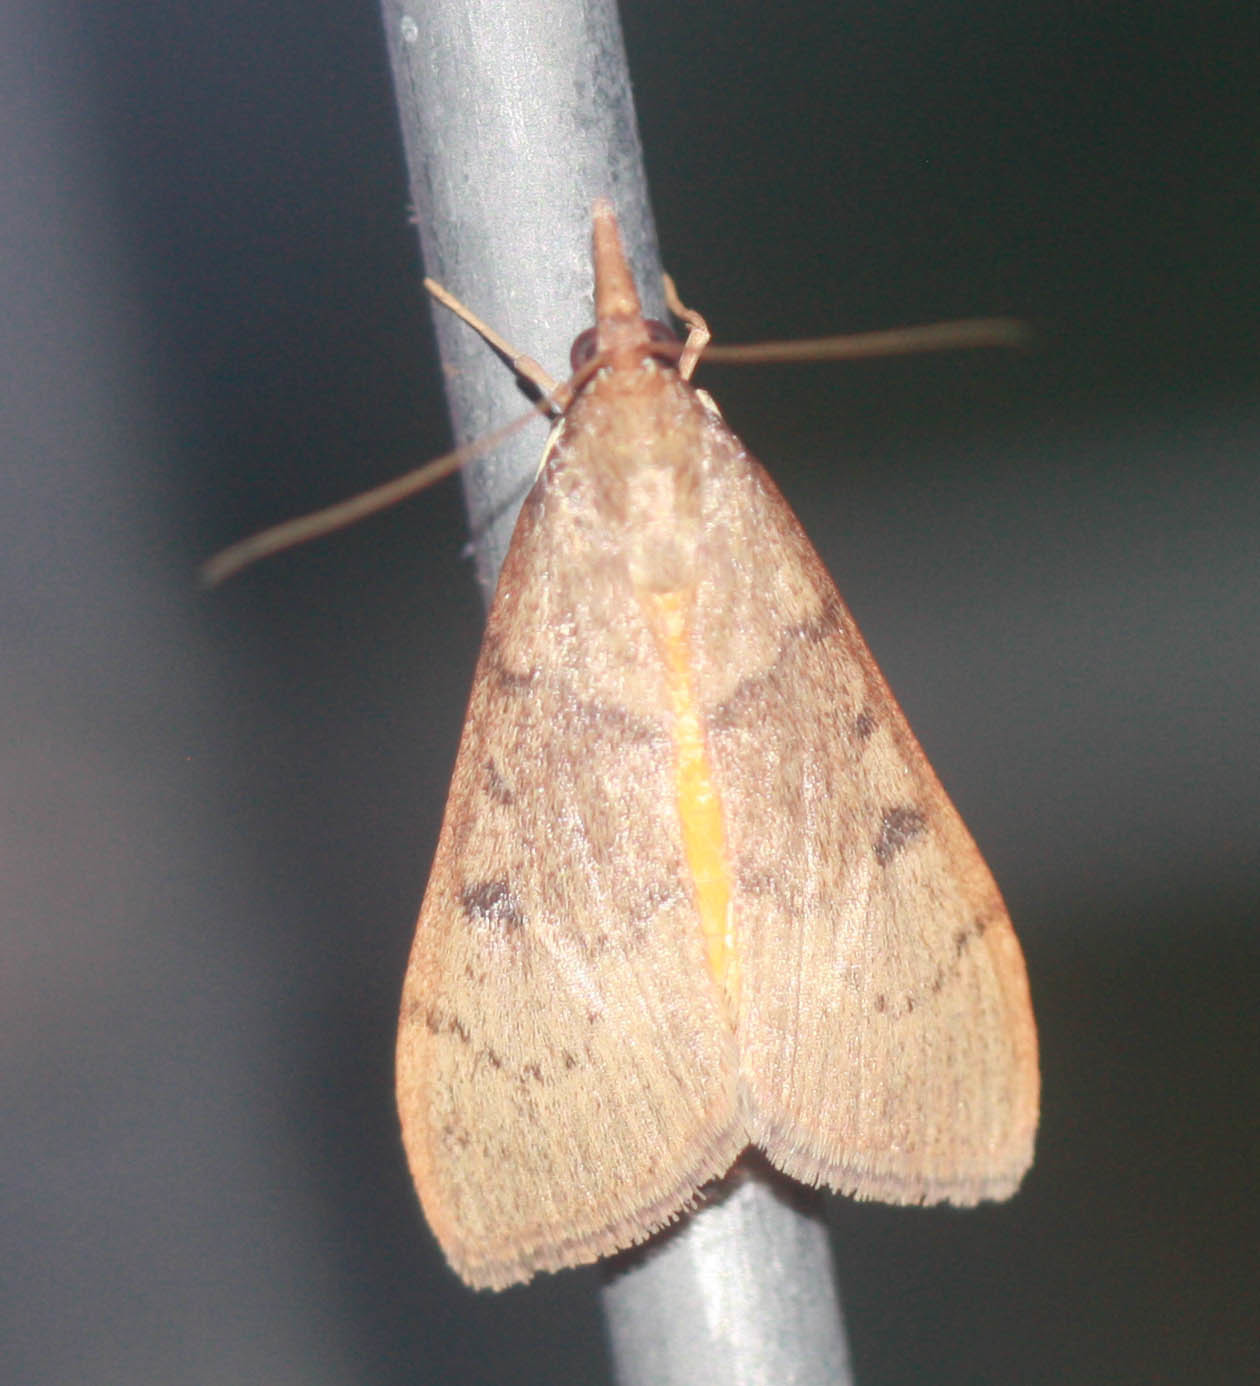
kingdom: Animalia
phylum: Arthropoda
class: Insecta
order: Lepidoptera
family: Crambidae
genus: Uresiphita
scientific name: Uresiphita reversalis
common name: Genista broom moth
